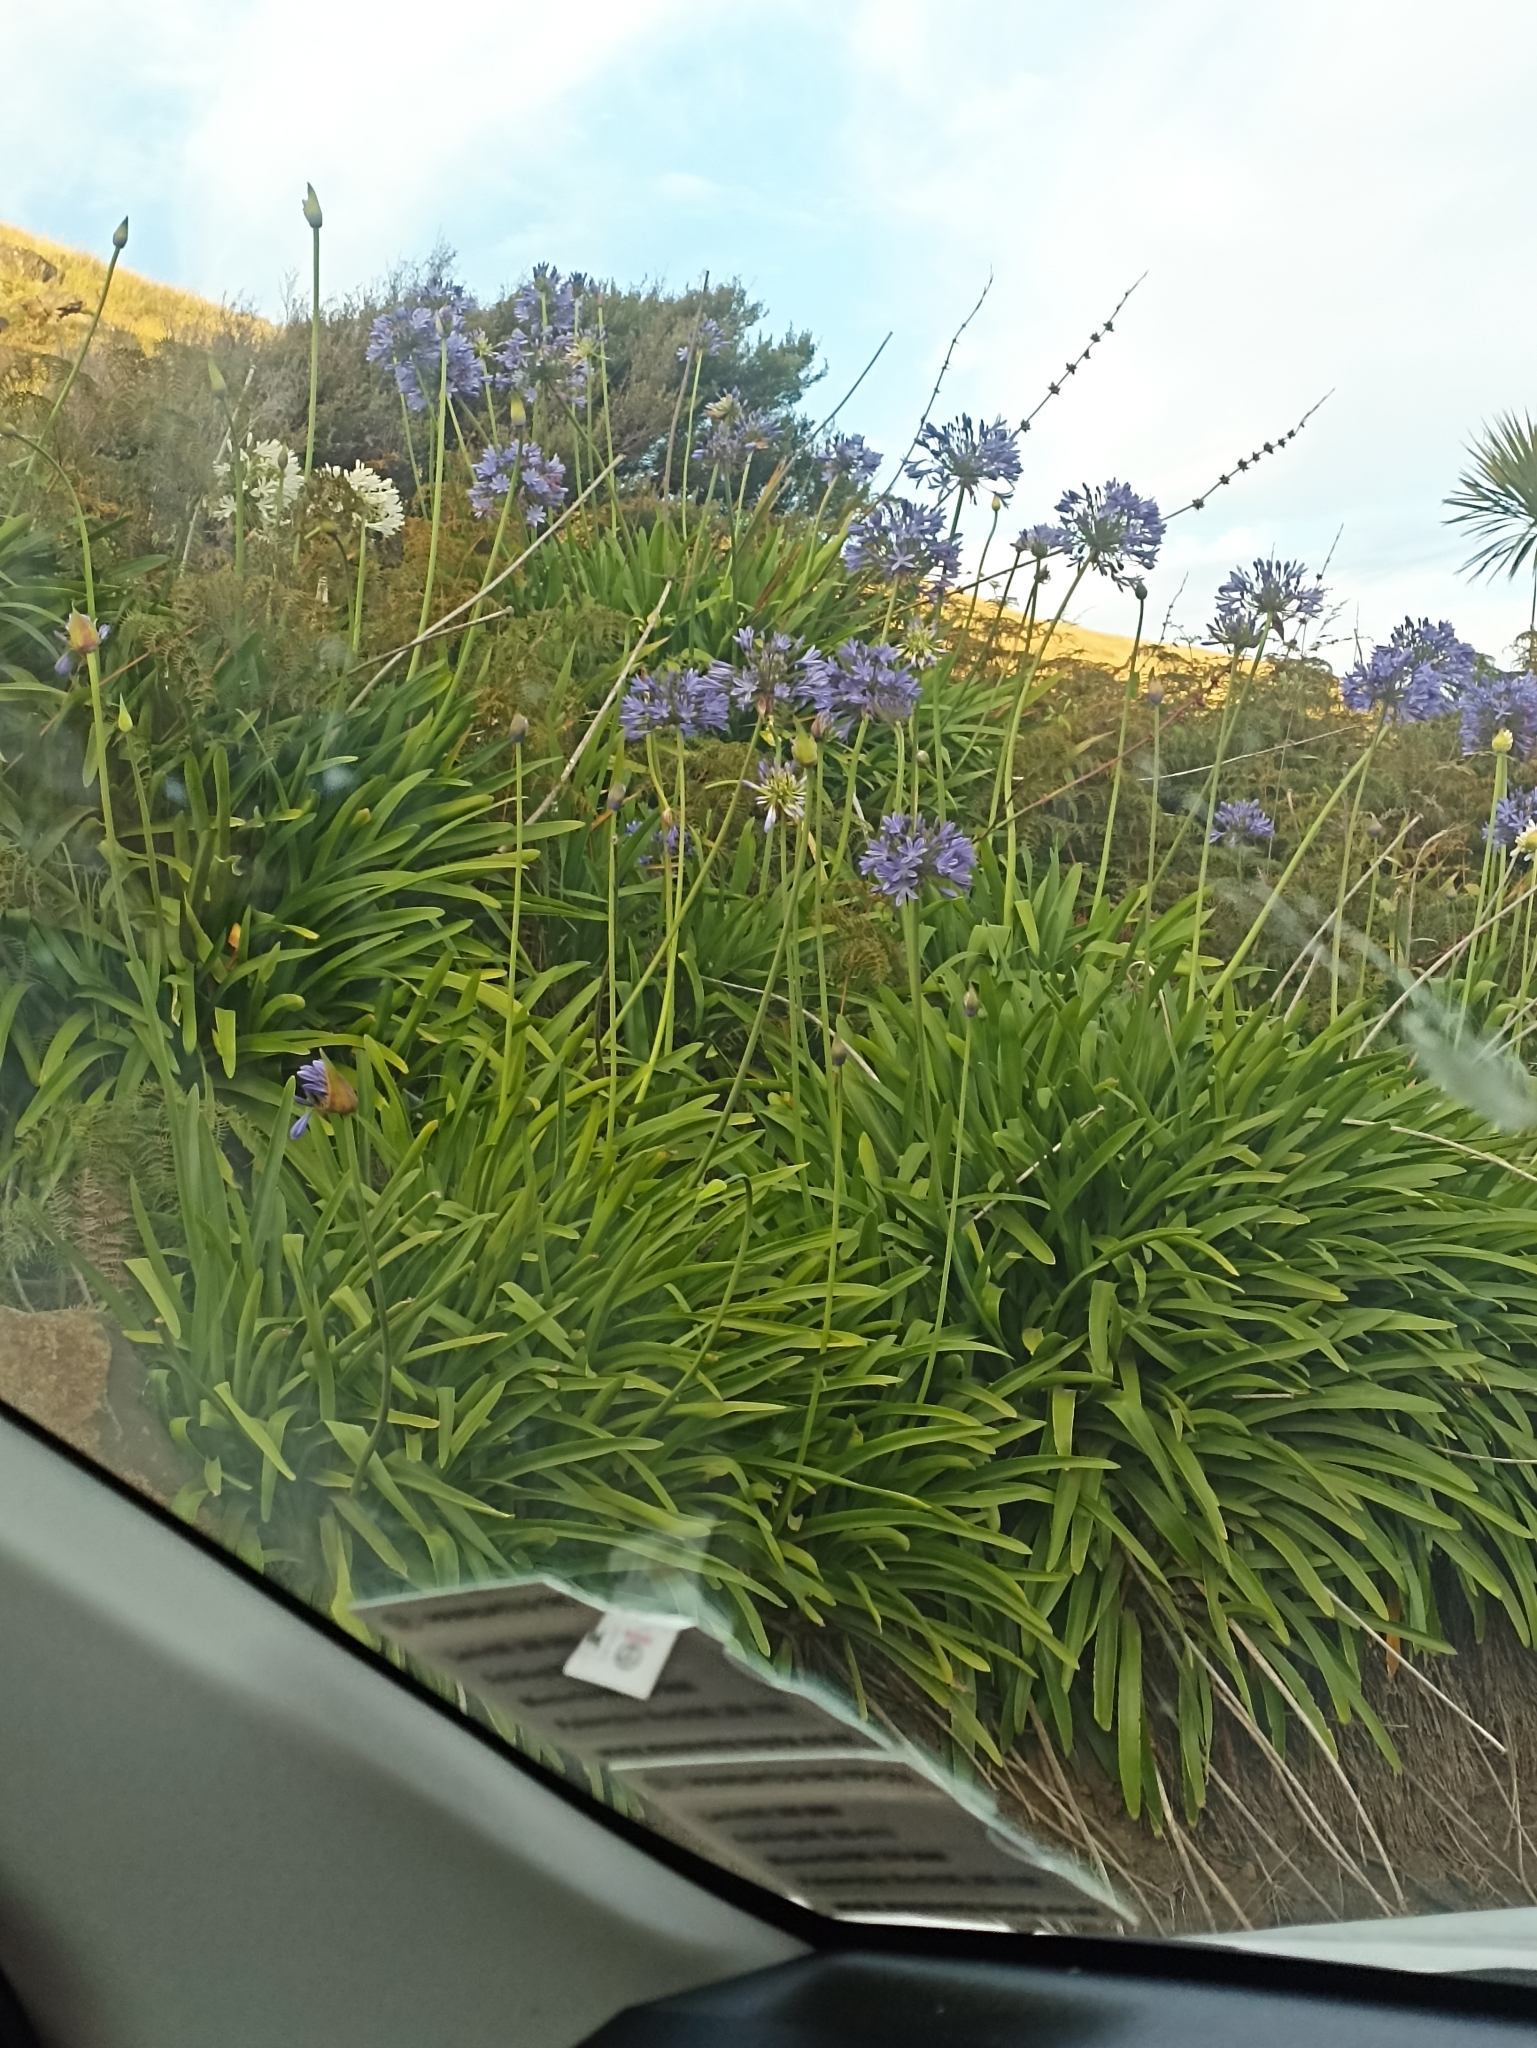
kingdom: Plantae
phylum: Tracheophyta
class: Liliopsida
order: Asparagales
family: Amaryllidaceae
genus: Agapanthus
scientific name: Agapanthus praecox
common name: African-lily
